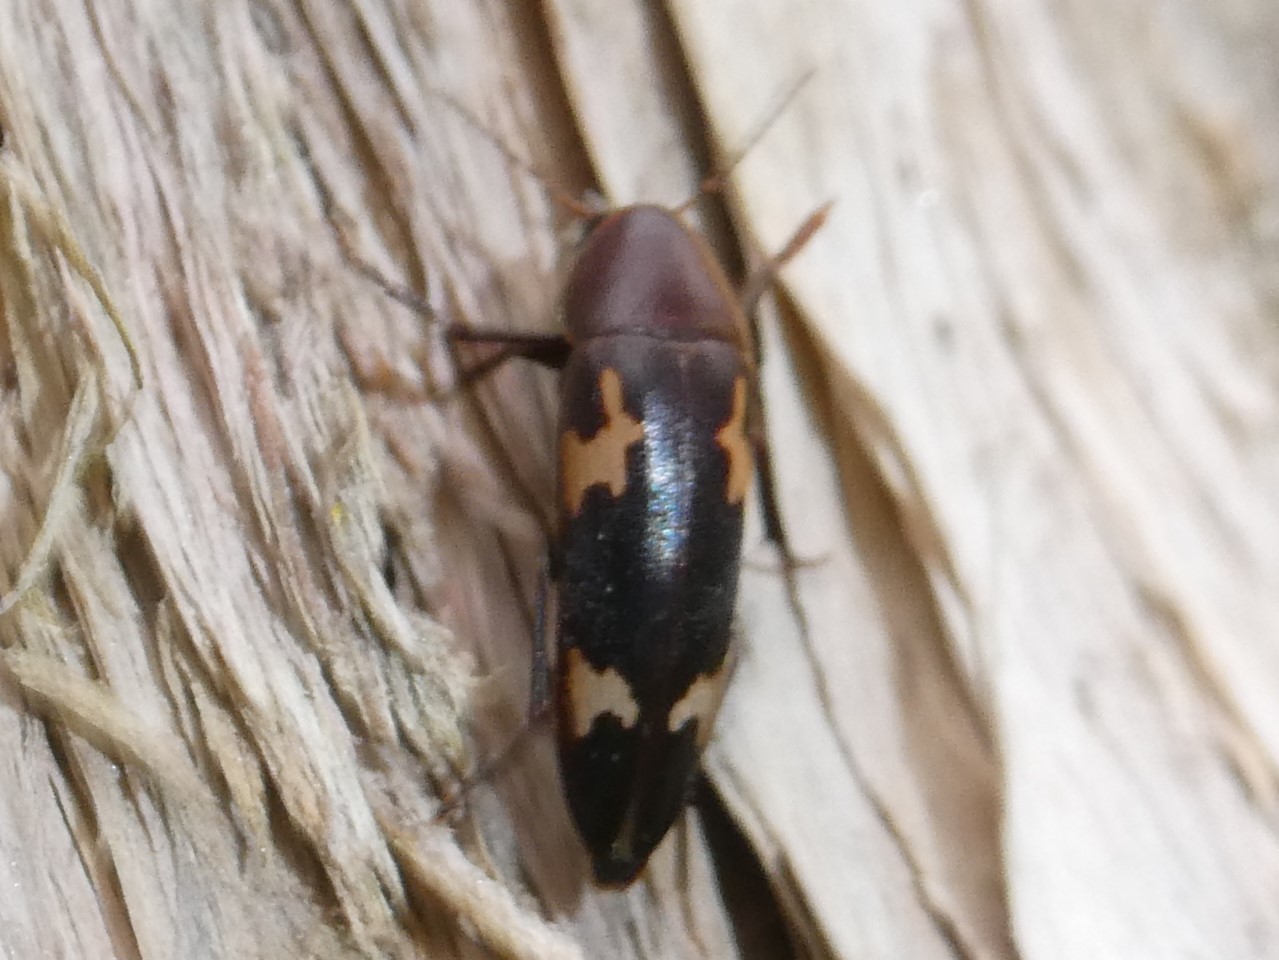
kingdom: Animalia
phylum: Arthropoda
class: Insecta
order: Coleoptera
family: Melandryidae
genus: Dircaea
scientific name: Dircaea liturata
